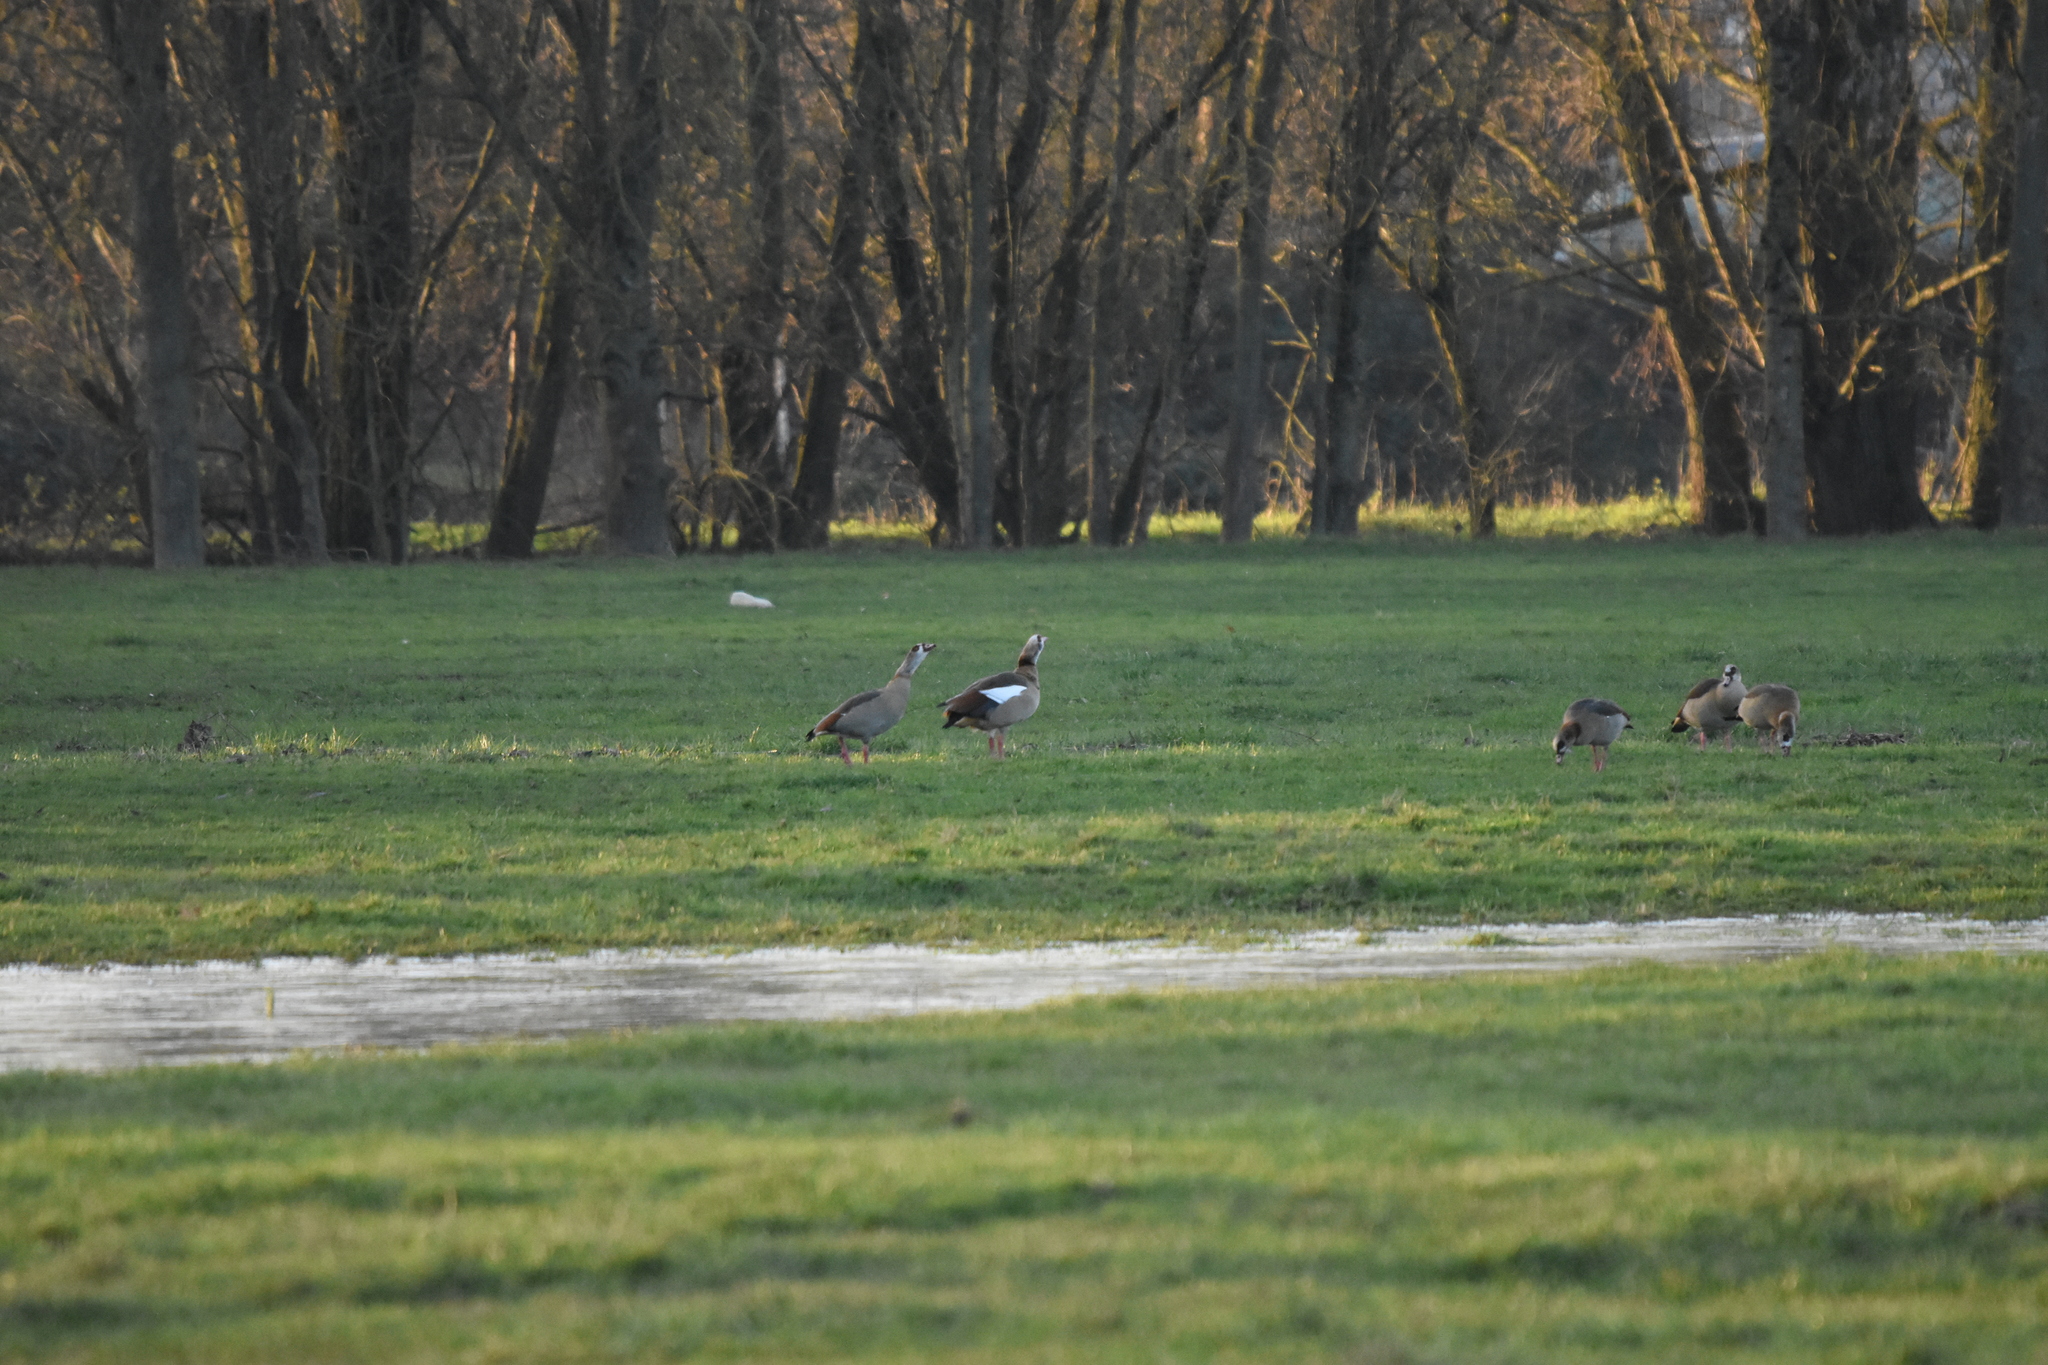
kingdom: Animalia
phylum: Chordata
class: Aves
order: Anseriformes
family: Anatidae
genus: Alopochen
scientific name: Alopochen aegyptiaca
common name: Egyptian goose
